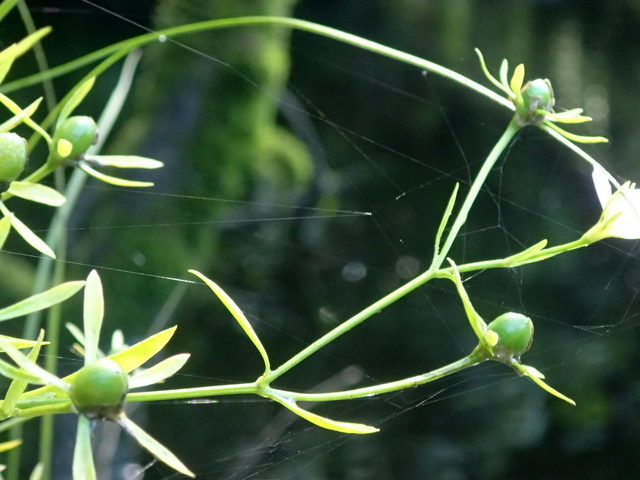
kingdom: Plantae
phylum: Tracheophyta
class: Magnoliopsida
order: Gentianales
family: Gentianaceae
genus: Sabatia
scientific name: Sabatia calycina
